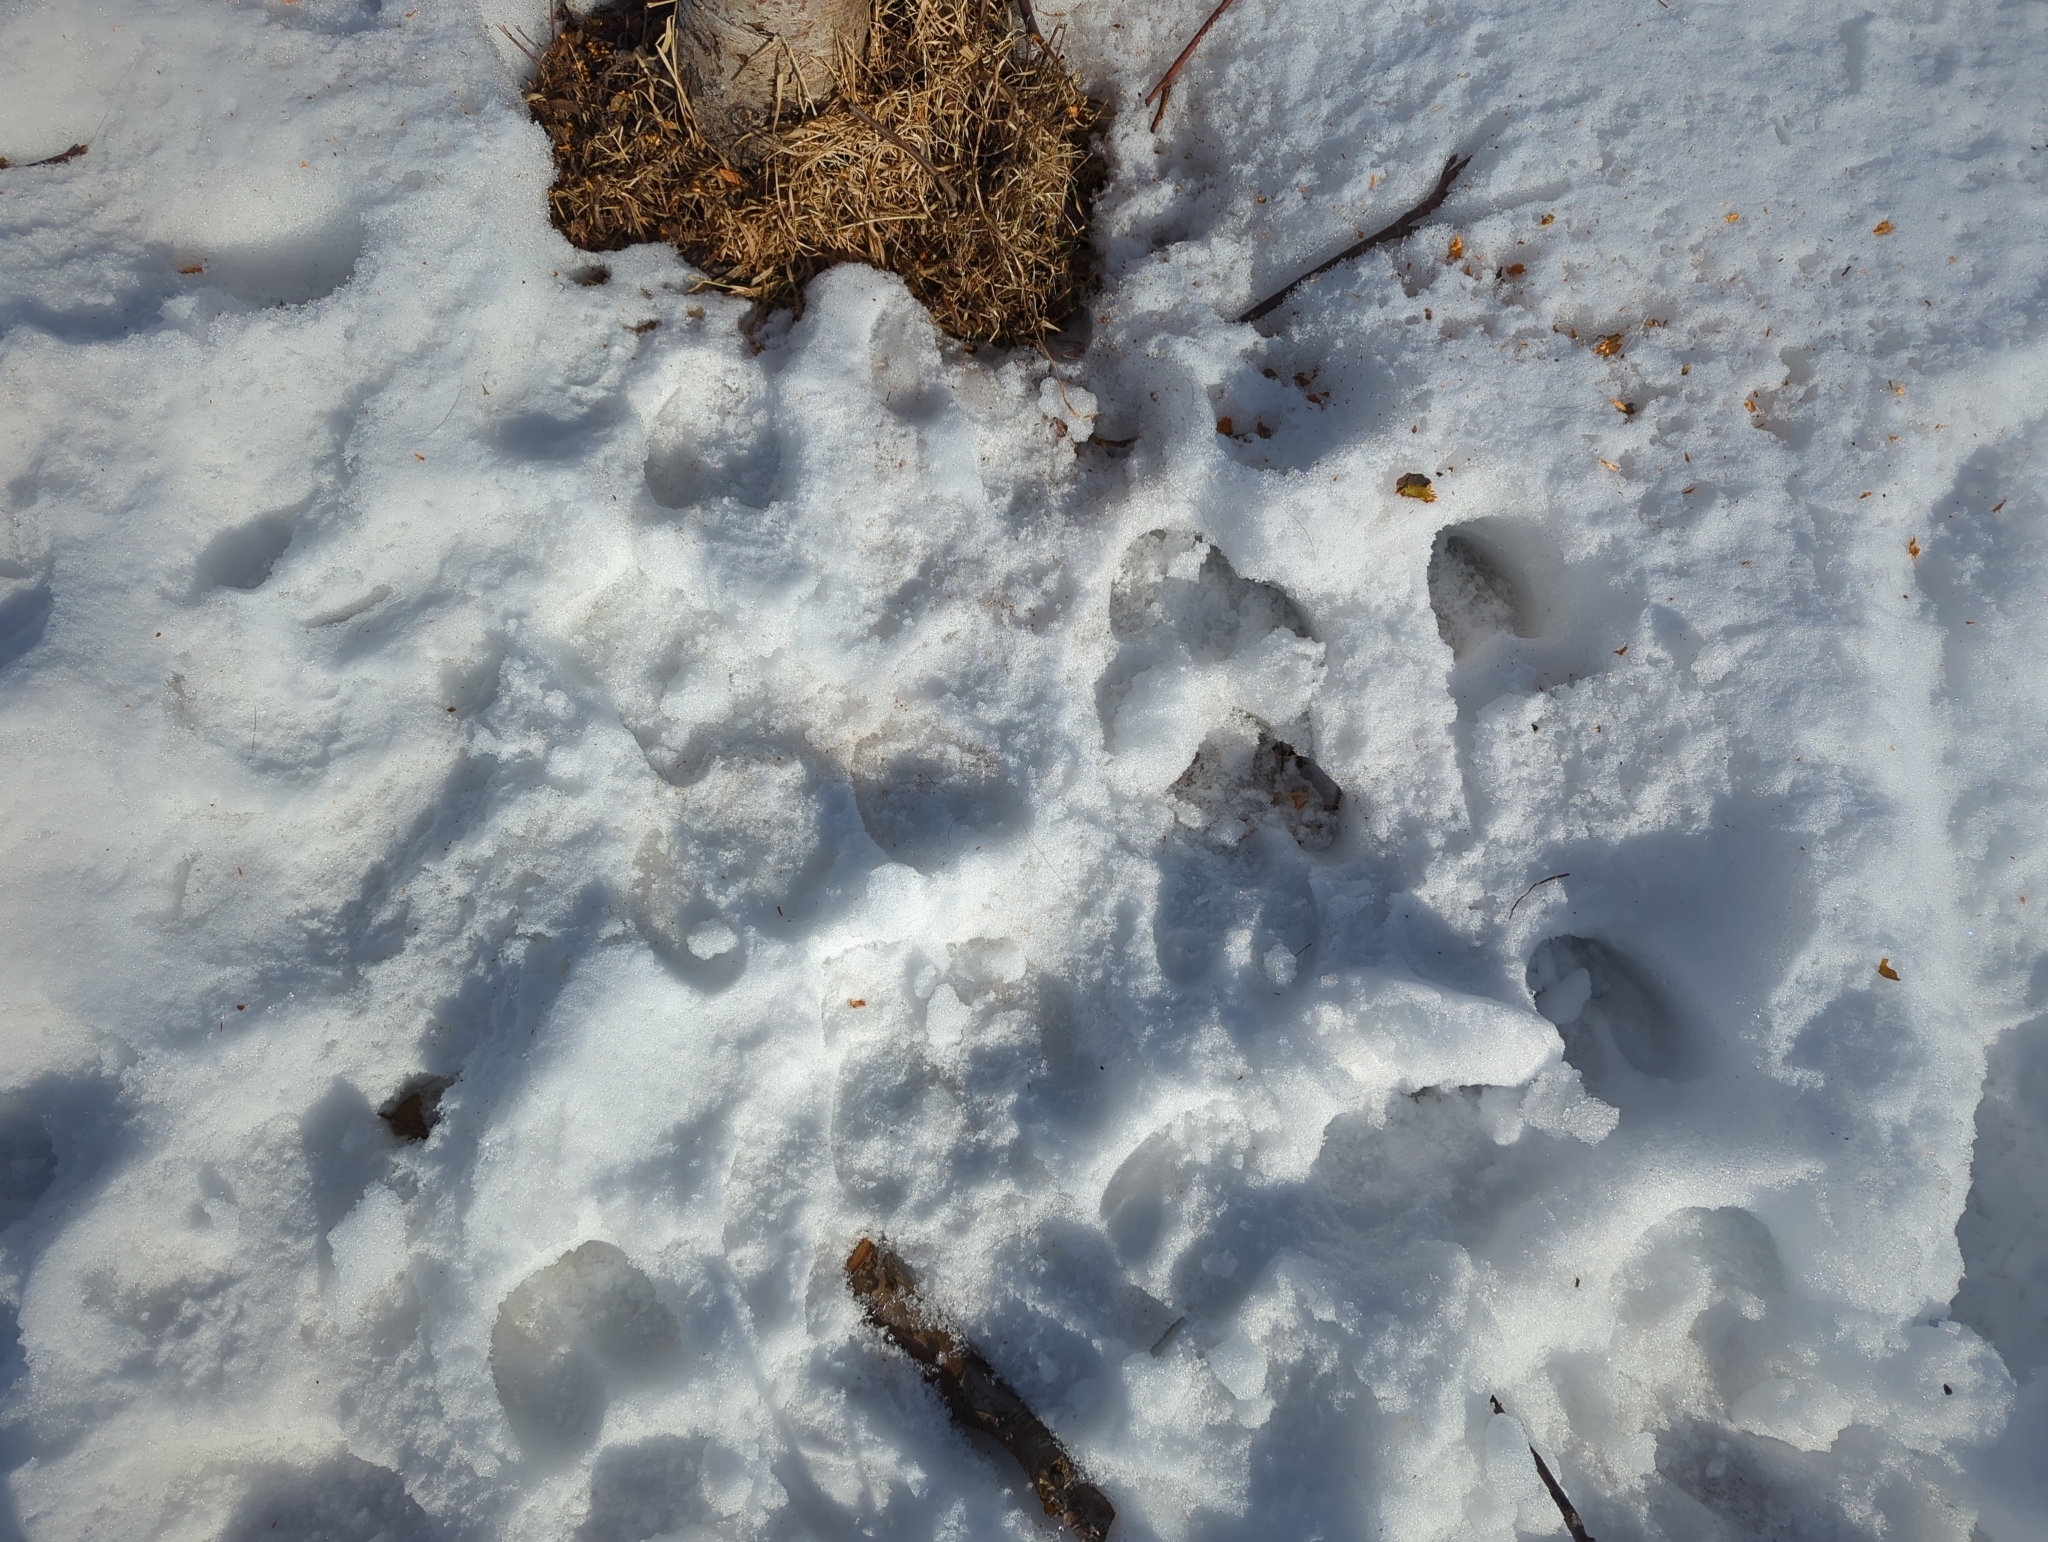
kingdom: Animalia
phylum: Chordata
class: Mammalia
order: Artiodactyla
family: Cervidae
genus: Alces
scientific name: Alces alces
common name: Moose
